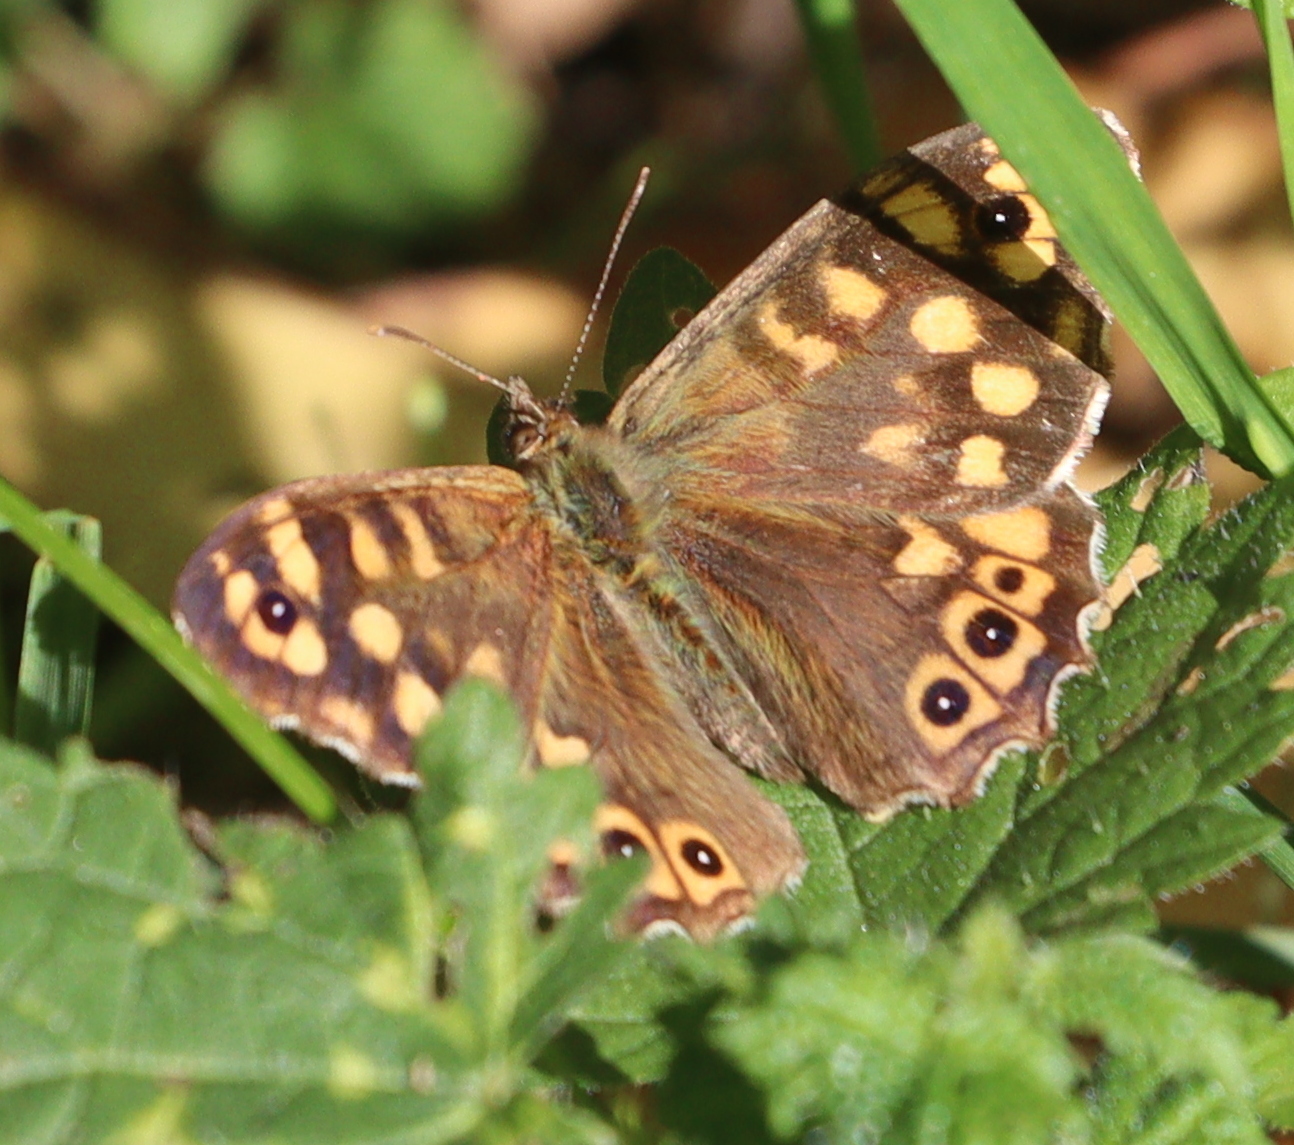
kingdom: Animalia
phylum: Arthropoda
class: Insecta
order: Lepidoptera
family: Nymphalidae
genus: Pararge
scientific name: Pararge aegeria
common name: Speckled wood
